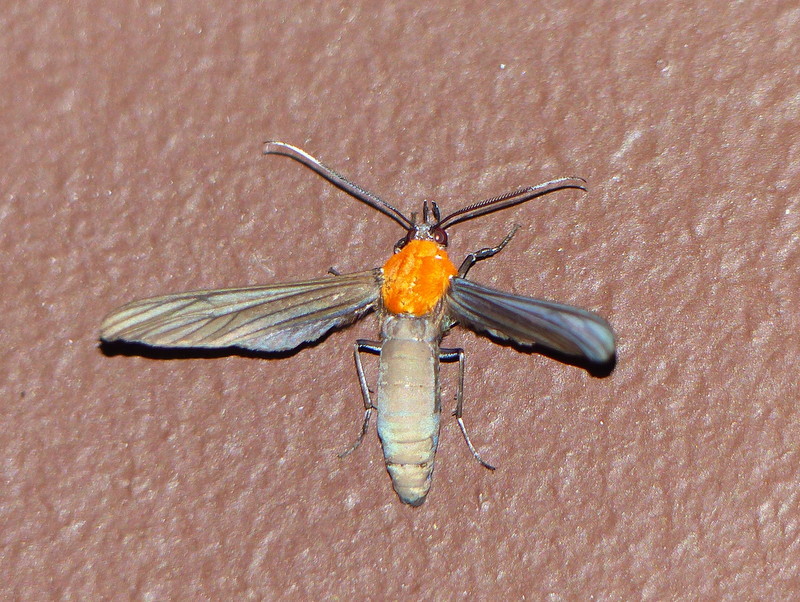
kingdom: Animalia
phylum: Arthropoda
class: Insecta
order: Lepidoptera
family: Erebidae
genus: Scena
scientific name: Scena potentia
